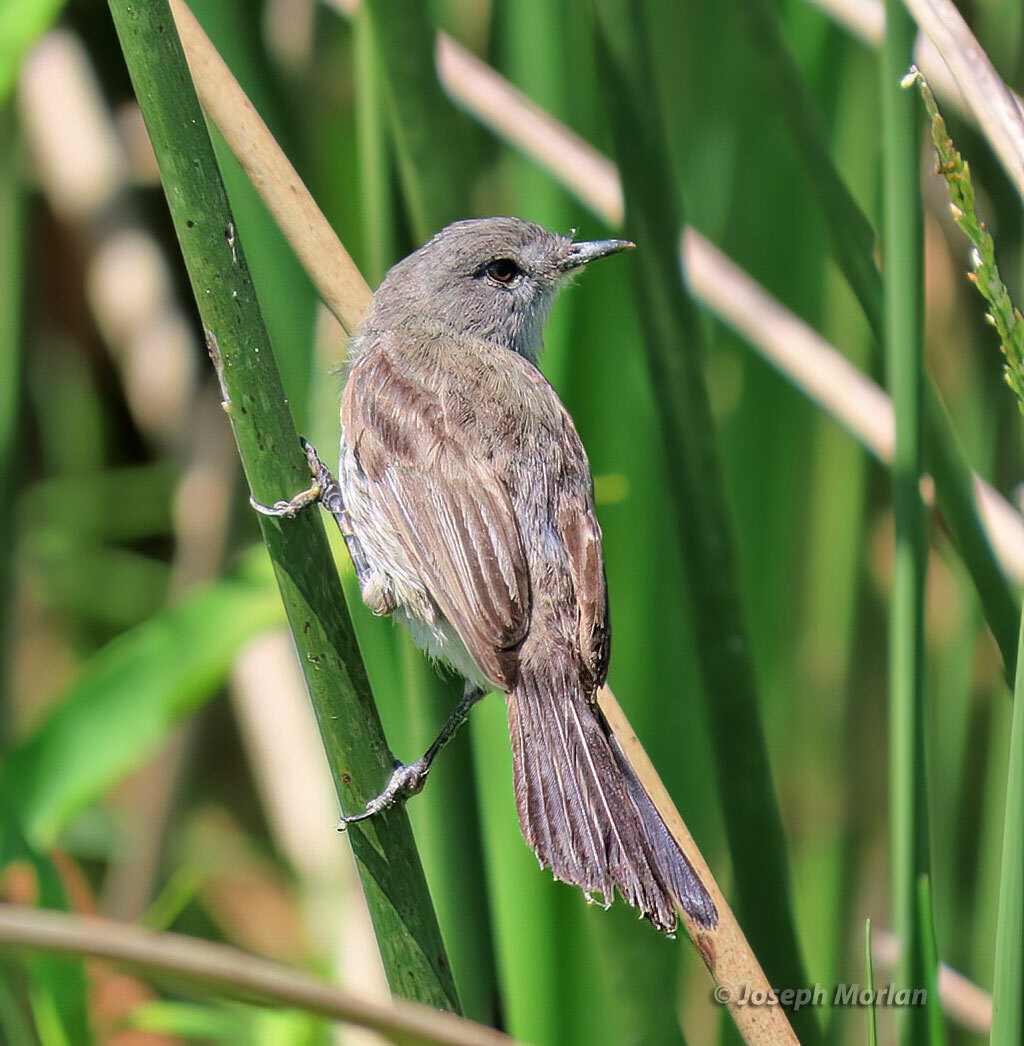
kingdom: Animalia
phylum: Chordata
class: Aves
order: Passeriformes
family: Tyrannidae
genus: Serpophaga
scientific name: Serpophaga nigricans
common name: Sooty tyrannulet
